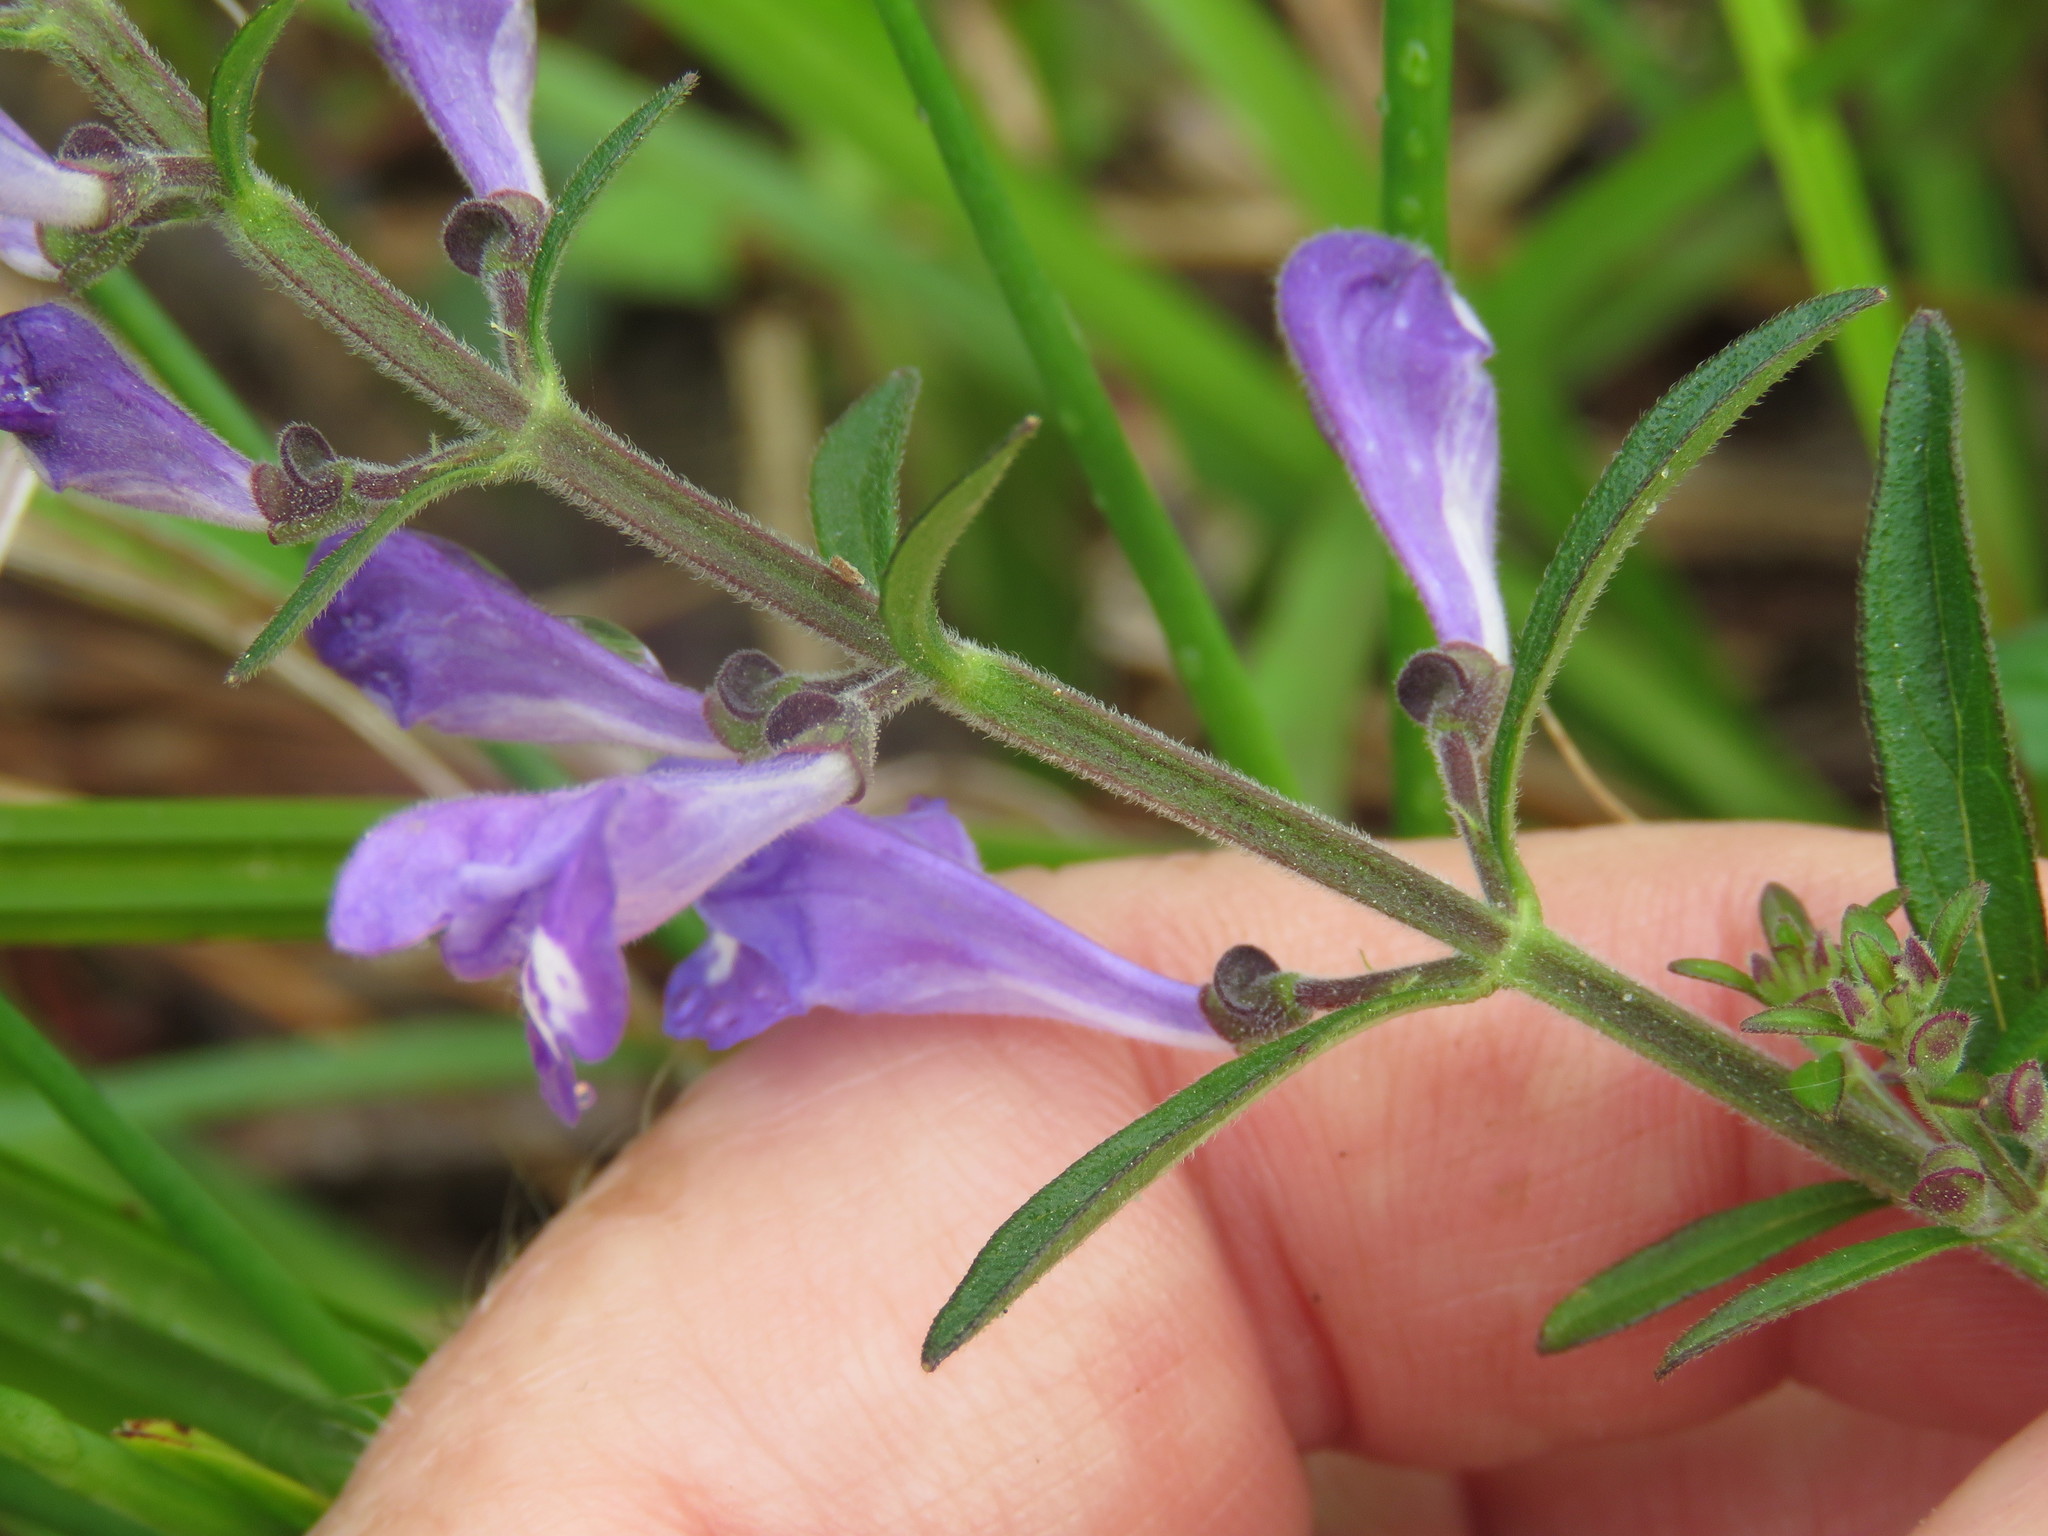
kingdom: Plantae
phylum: Tracheophyta
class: Magnoliopsida
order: Lamiales
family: Lamiaceae
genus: Scutellaria
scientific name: Scutellaria integrifolia
